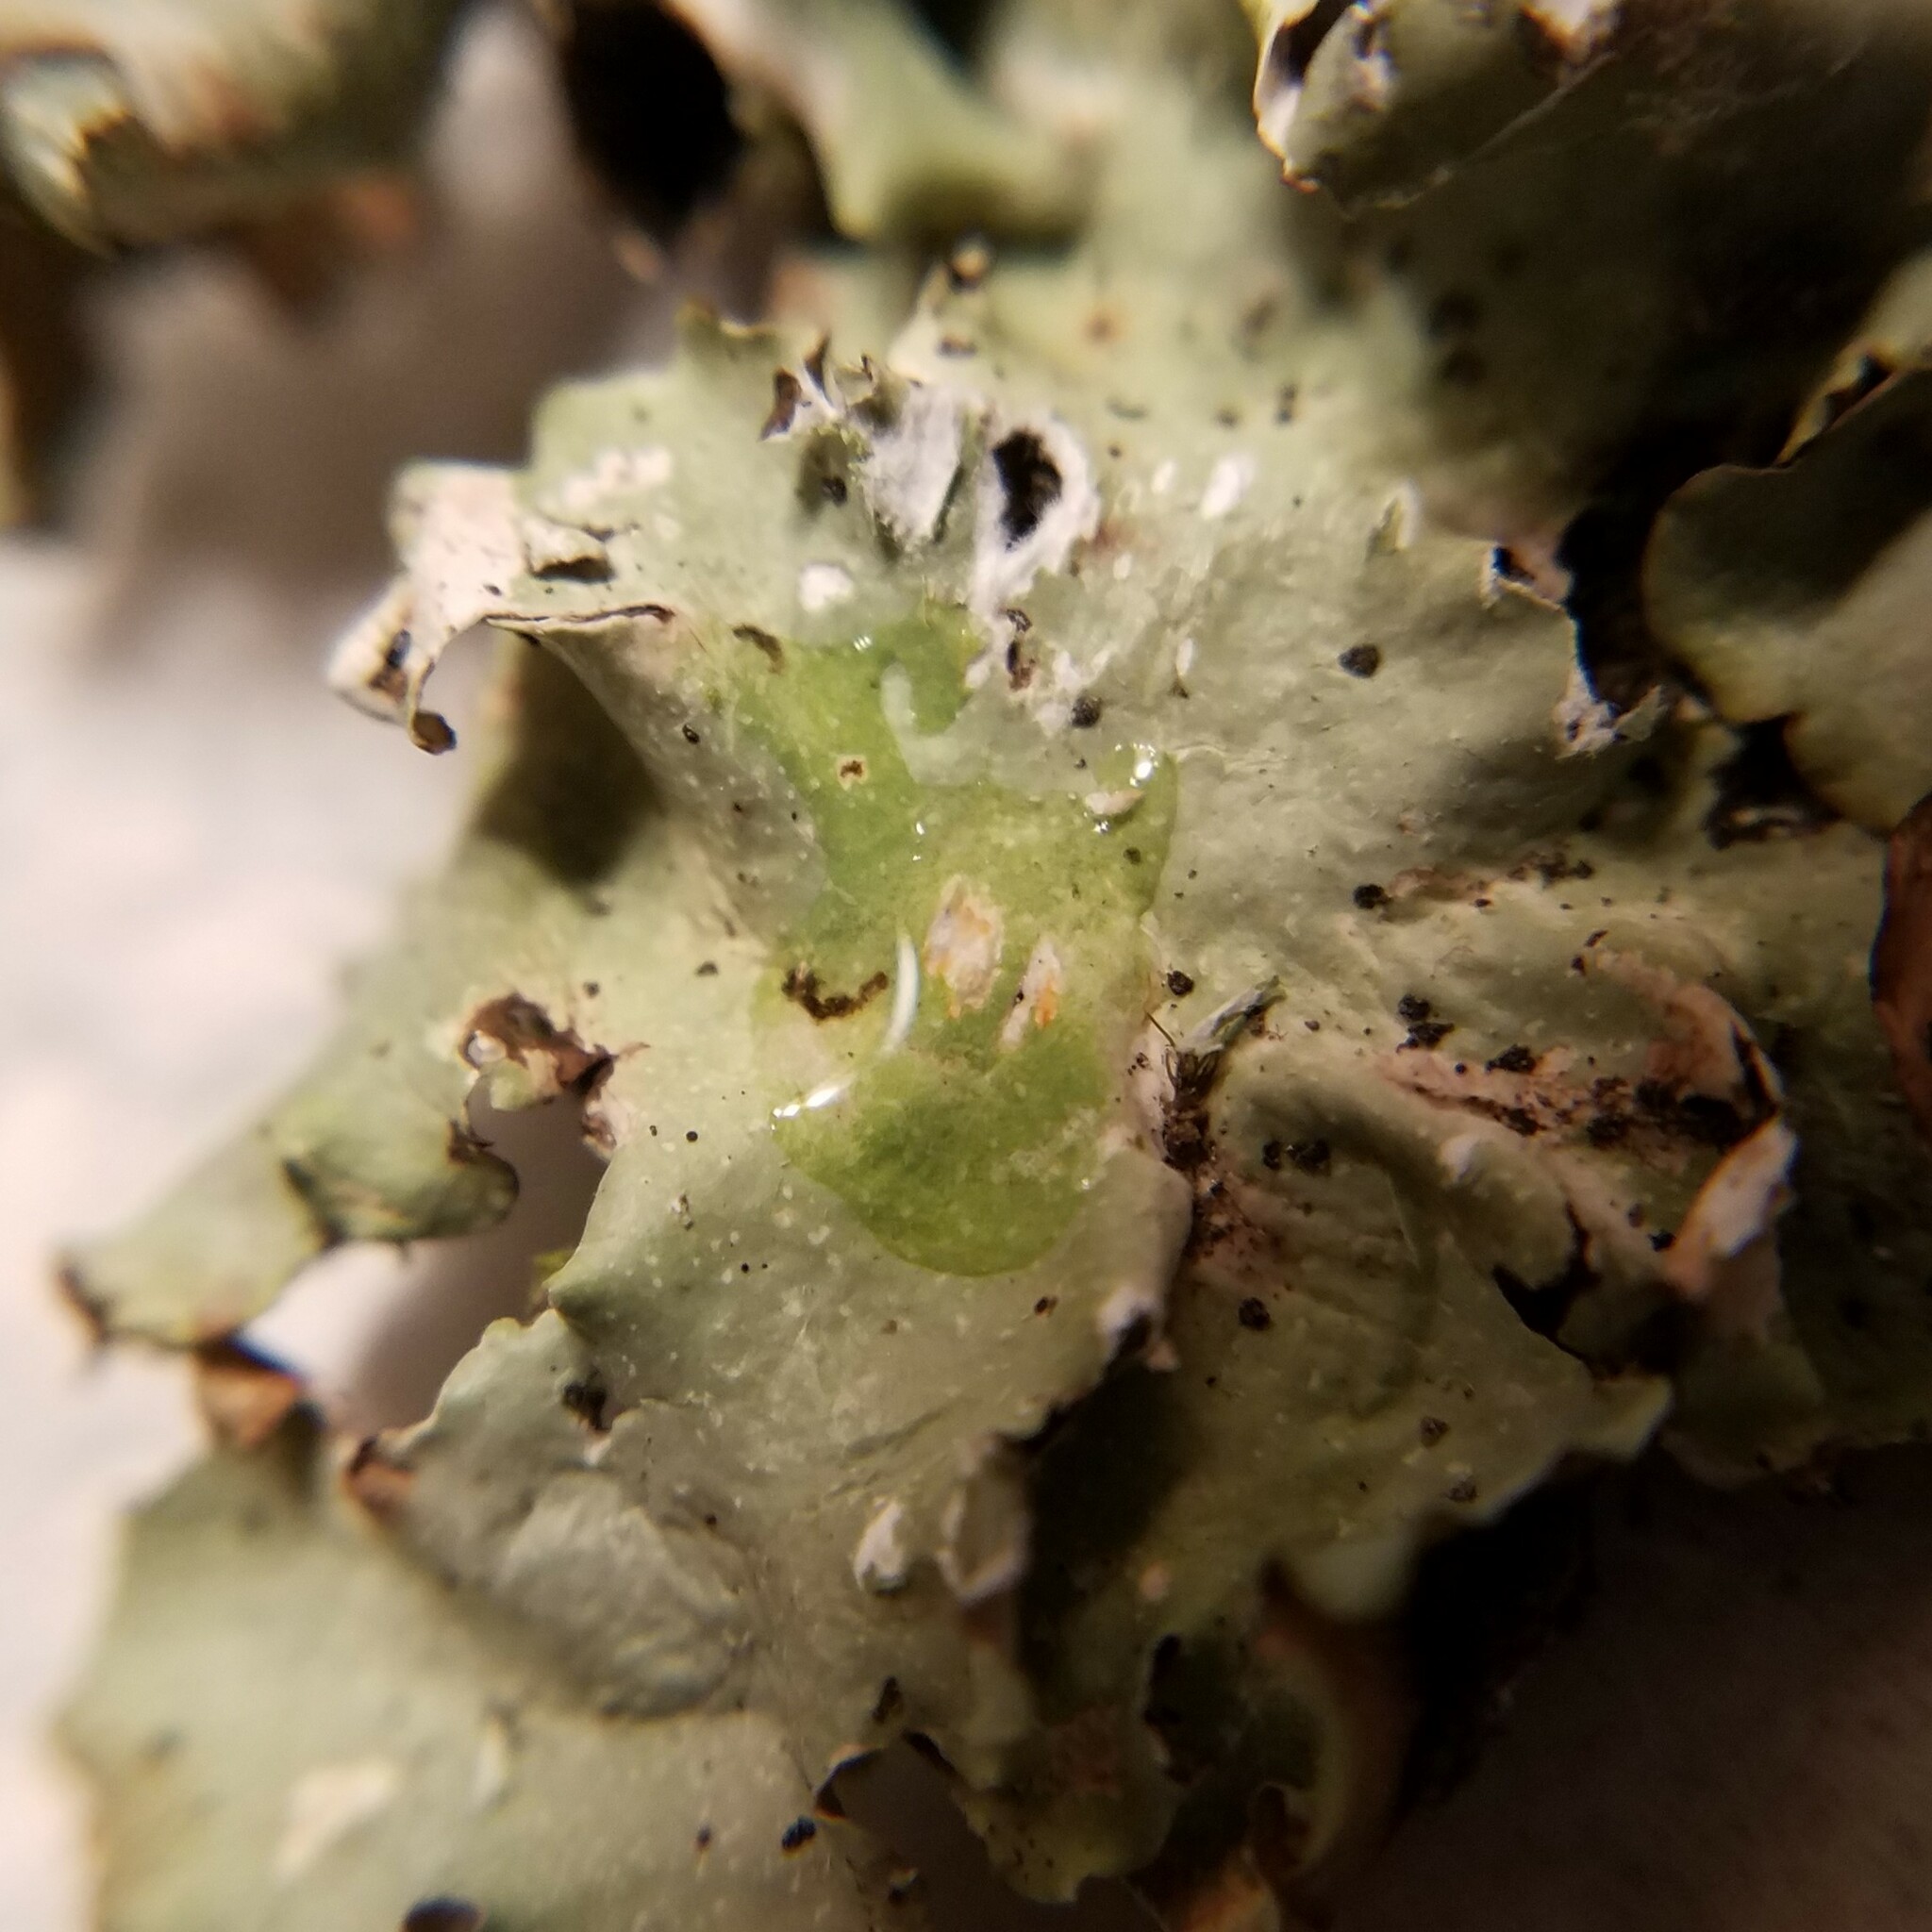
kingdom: Fungi
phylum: Ascomycota
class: Lecanoromycetes
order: Lecanorales
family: Parmeliaceae
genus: Cetrelia
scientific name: Cetrelia olivetorum
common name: Sea storm lichen
